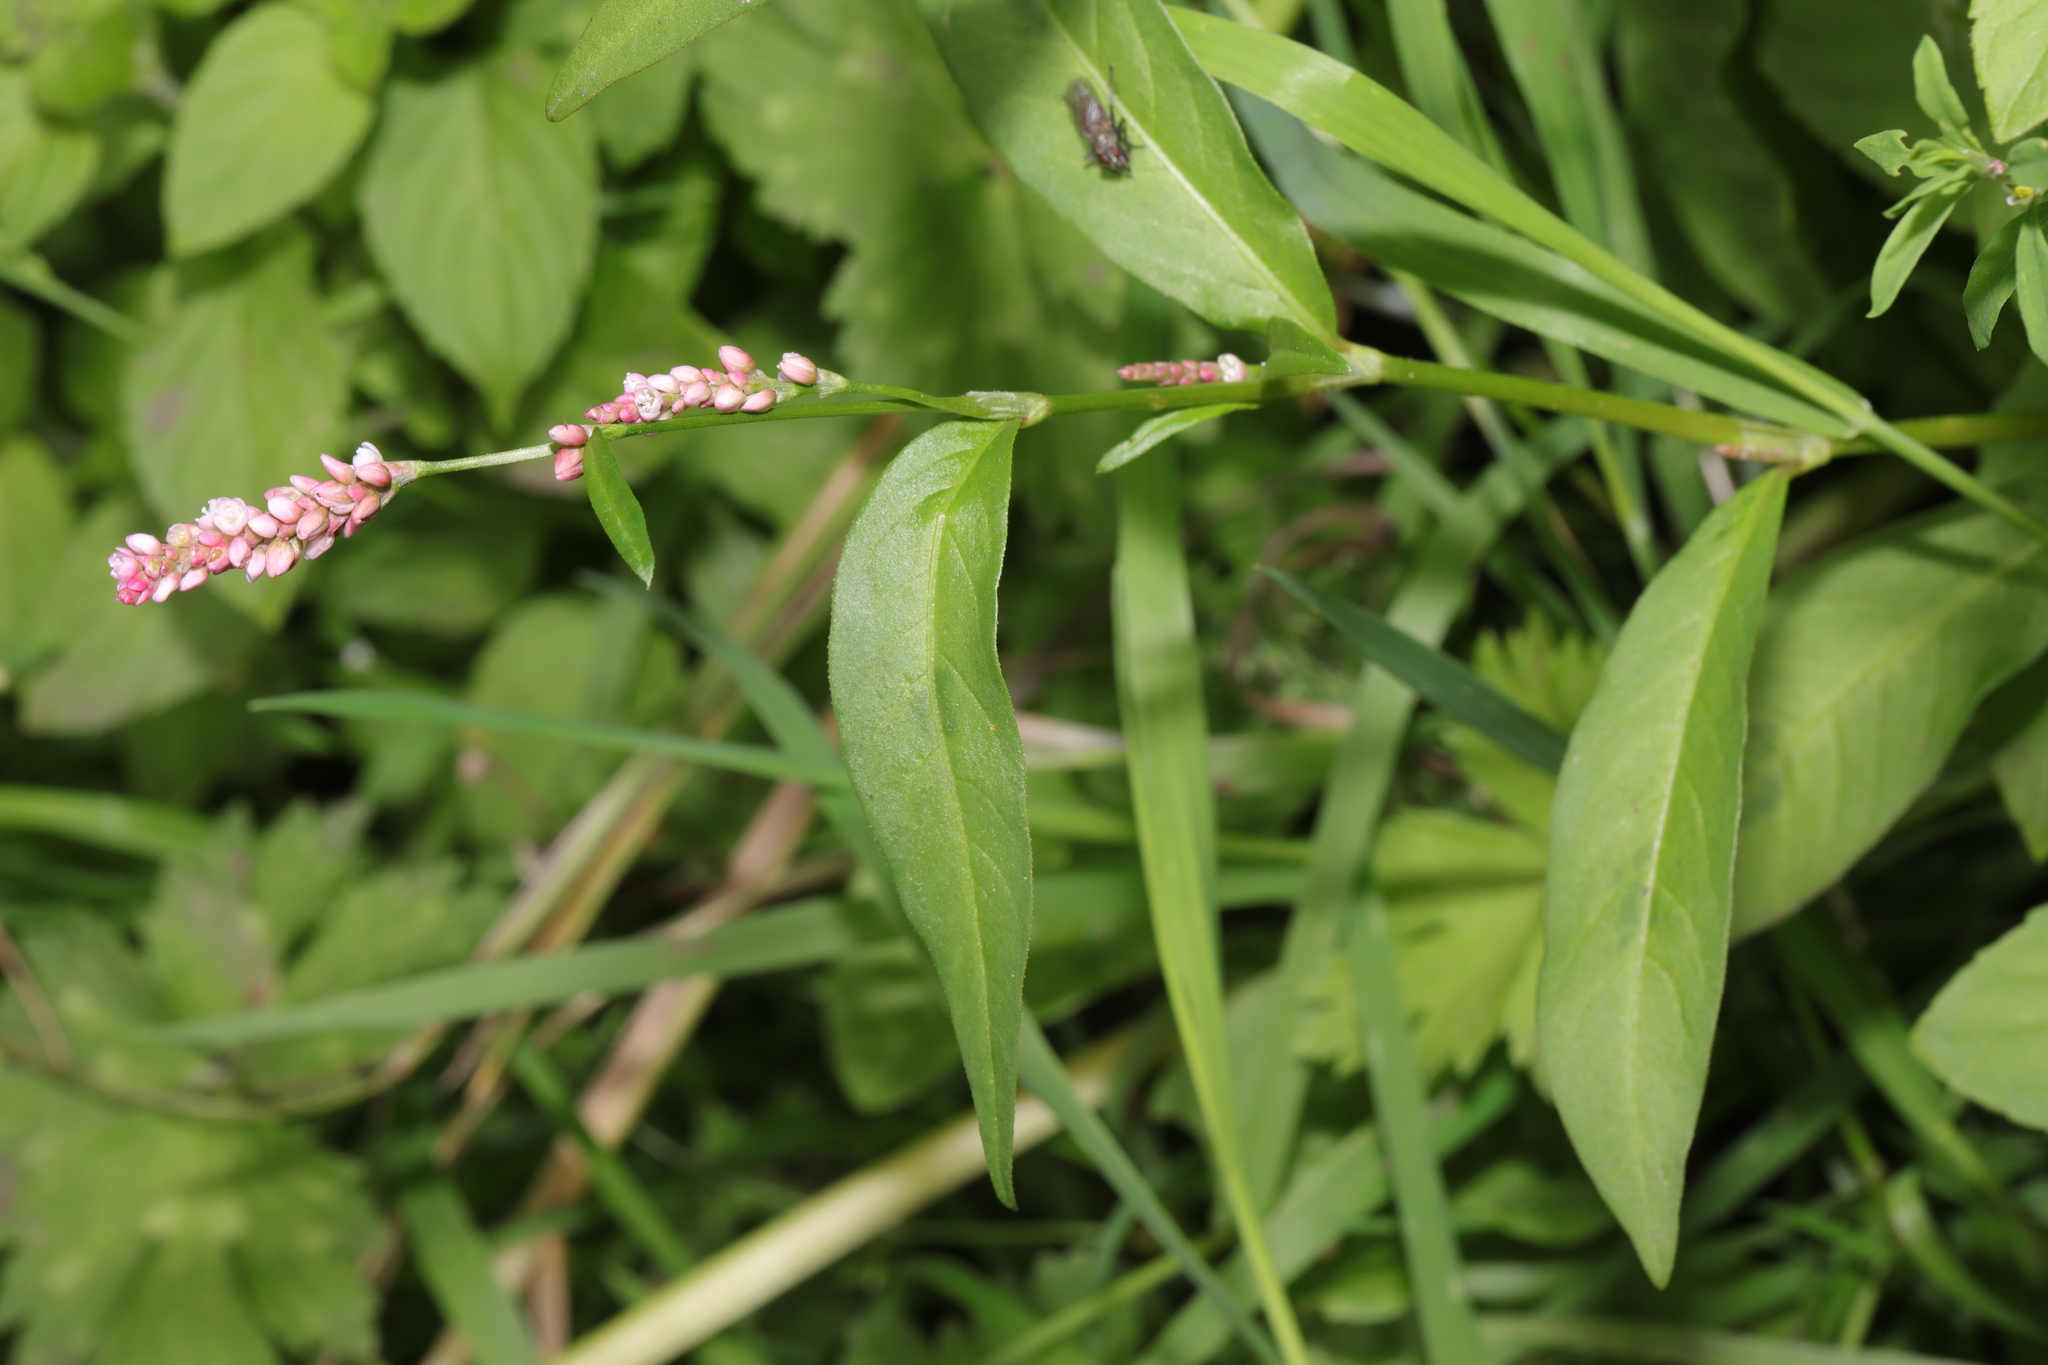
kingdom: Plantae
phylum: Tracheophyta
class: Magnoliopsida
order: Caryophyllales
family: Polygonaceae
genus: Persicaria
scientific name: Persicaria maculosa
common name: Redshank
